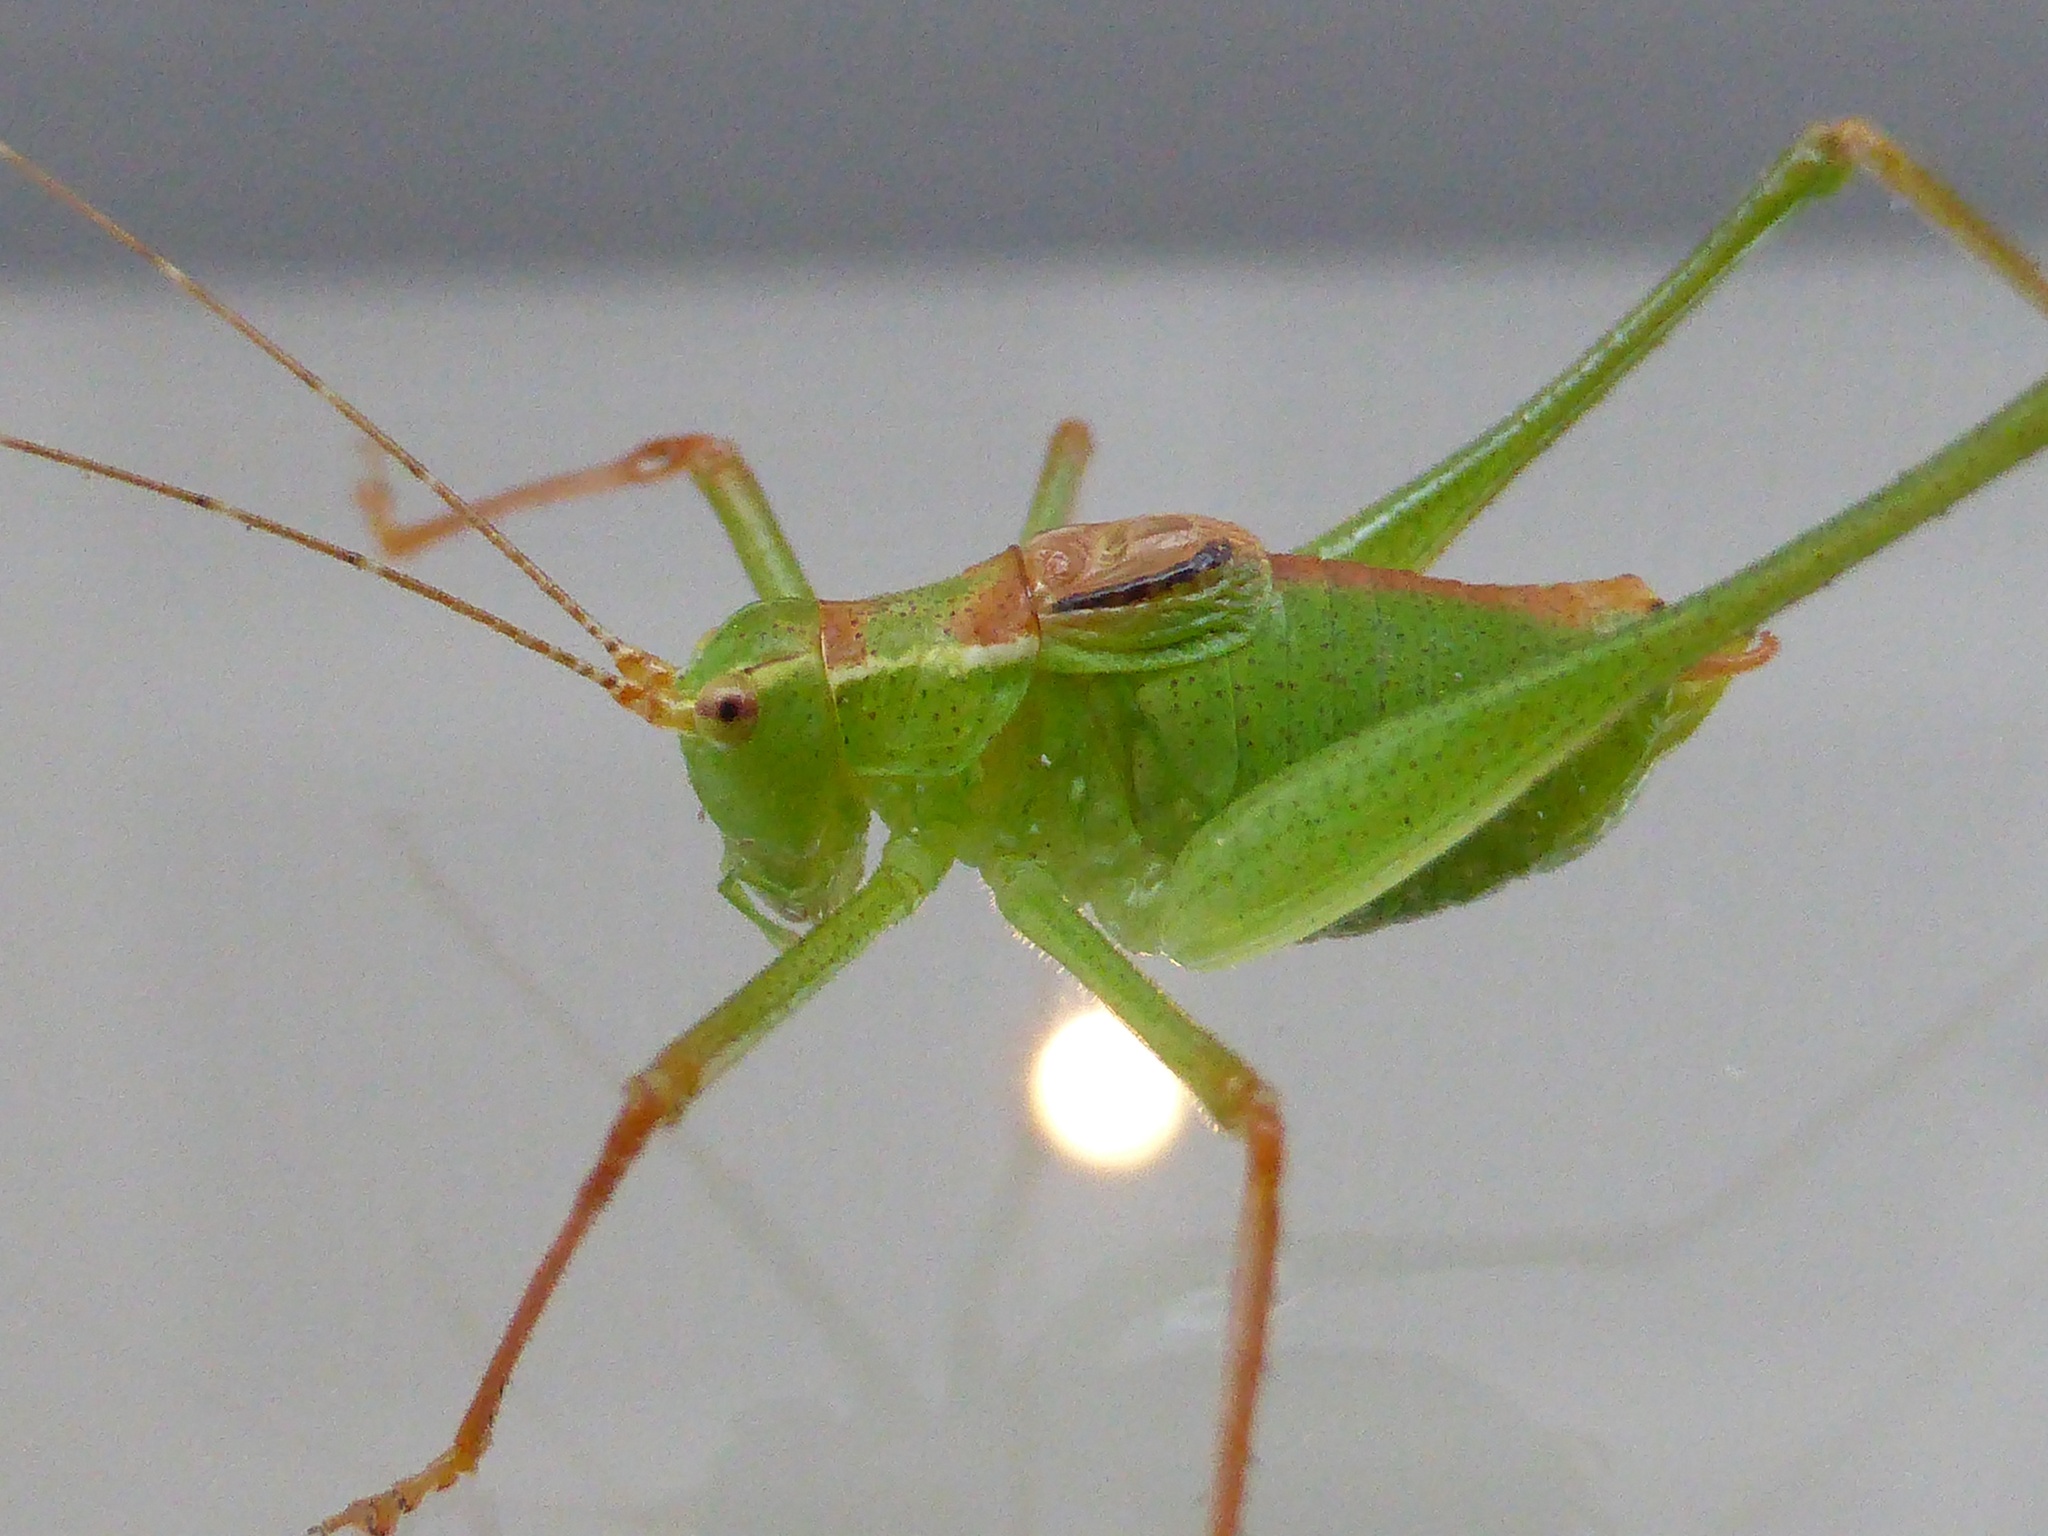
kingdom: Animalia
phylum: Arthropoda
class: Insecta
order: Orthoptera
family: Tettigoniidae
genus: Leptophyes
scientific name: Leptophyes punctatissima
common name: Speckled bush-cricket
